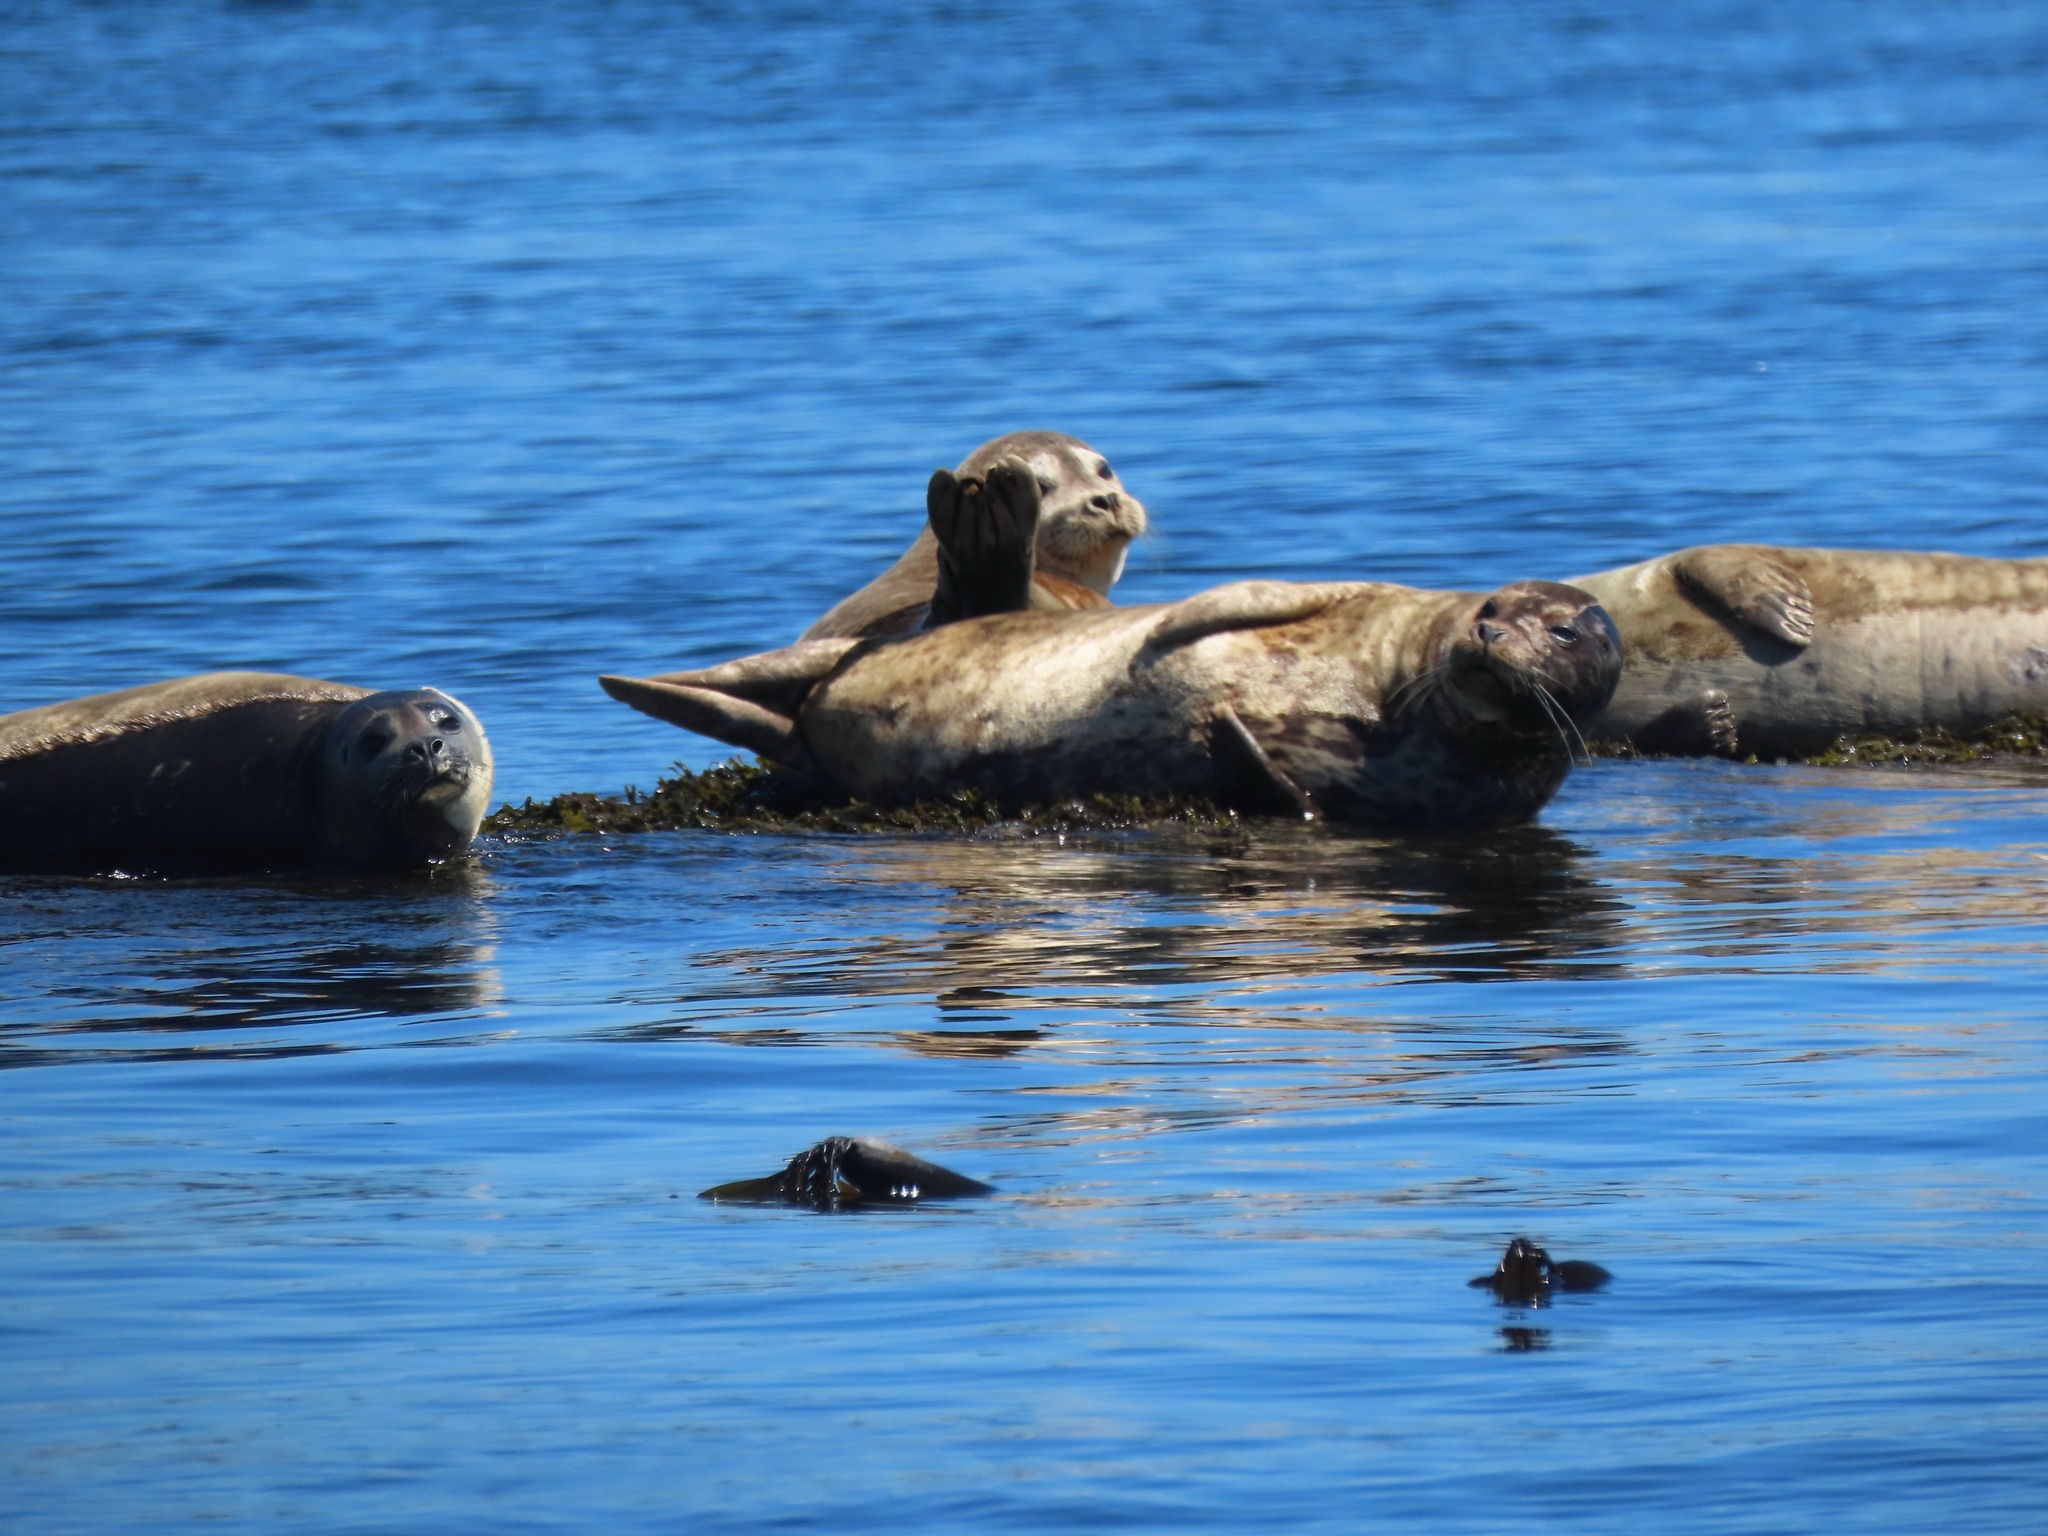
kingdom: Animalia
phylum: Chordata
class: Mammalia
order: Carnivora
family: Phocidae
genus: Phoca
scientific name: Phoca vitulina
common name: Harbor seal
